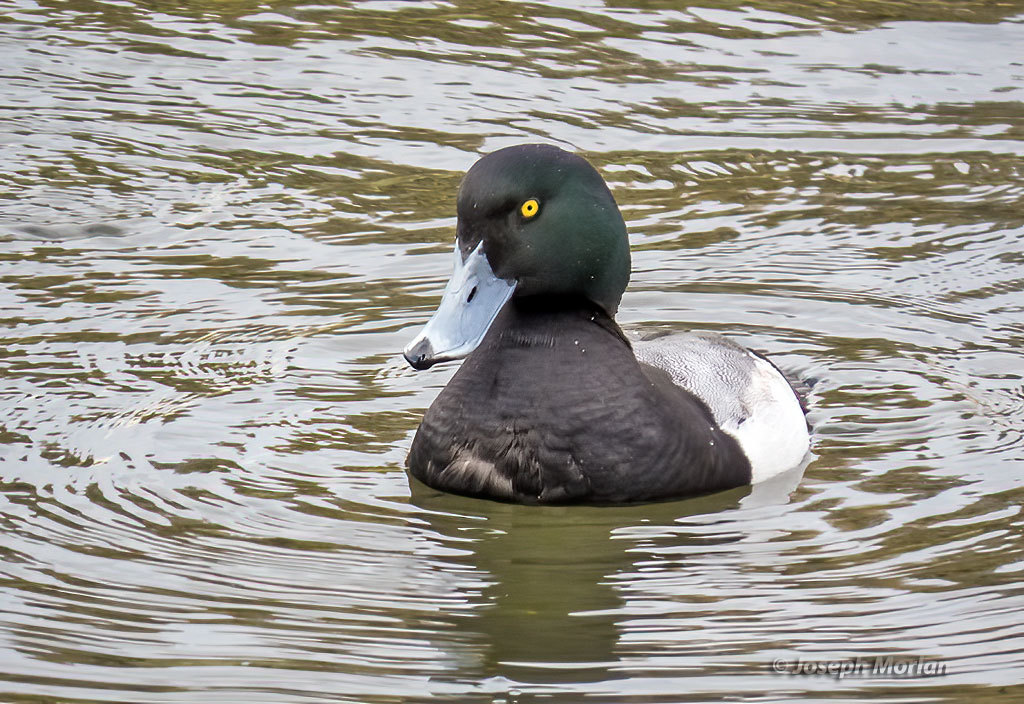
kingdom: Animalia
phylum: Chordata
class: Aves
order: Anseriformes
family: Anatidae
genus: Aythya
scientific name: Aythya marila
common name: Greater scaup
